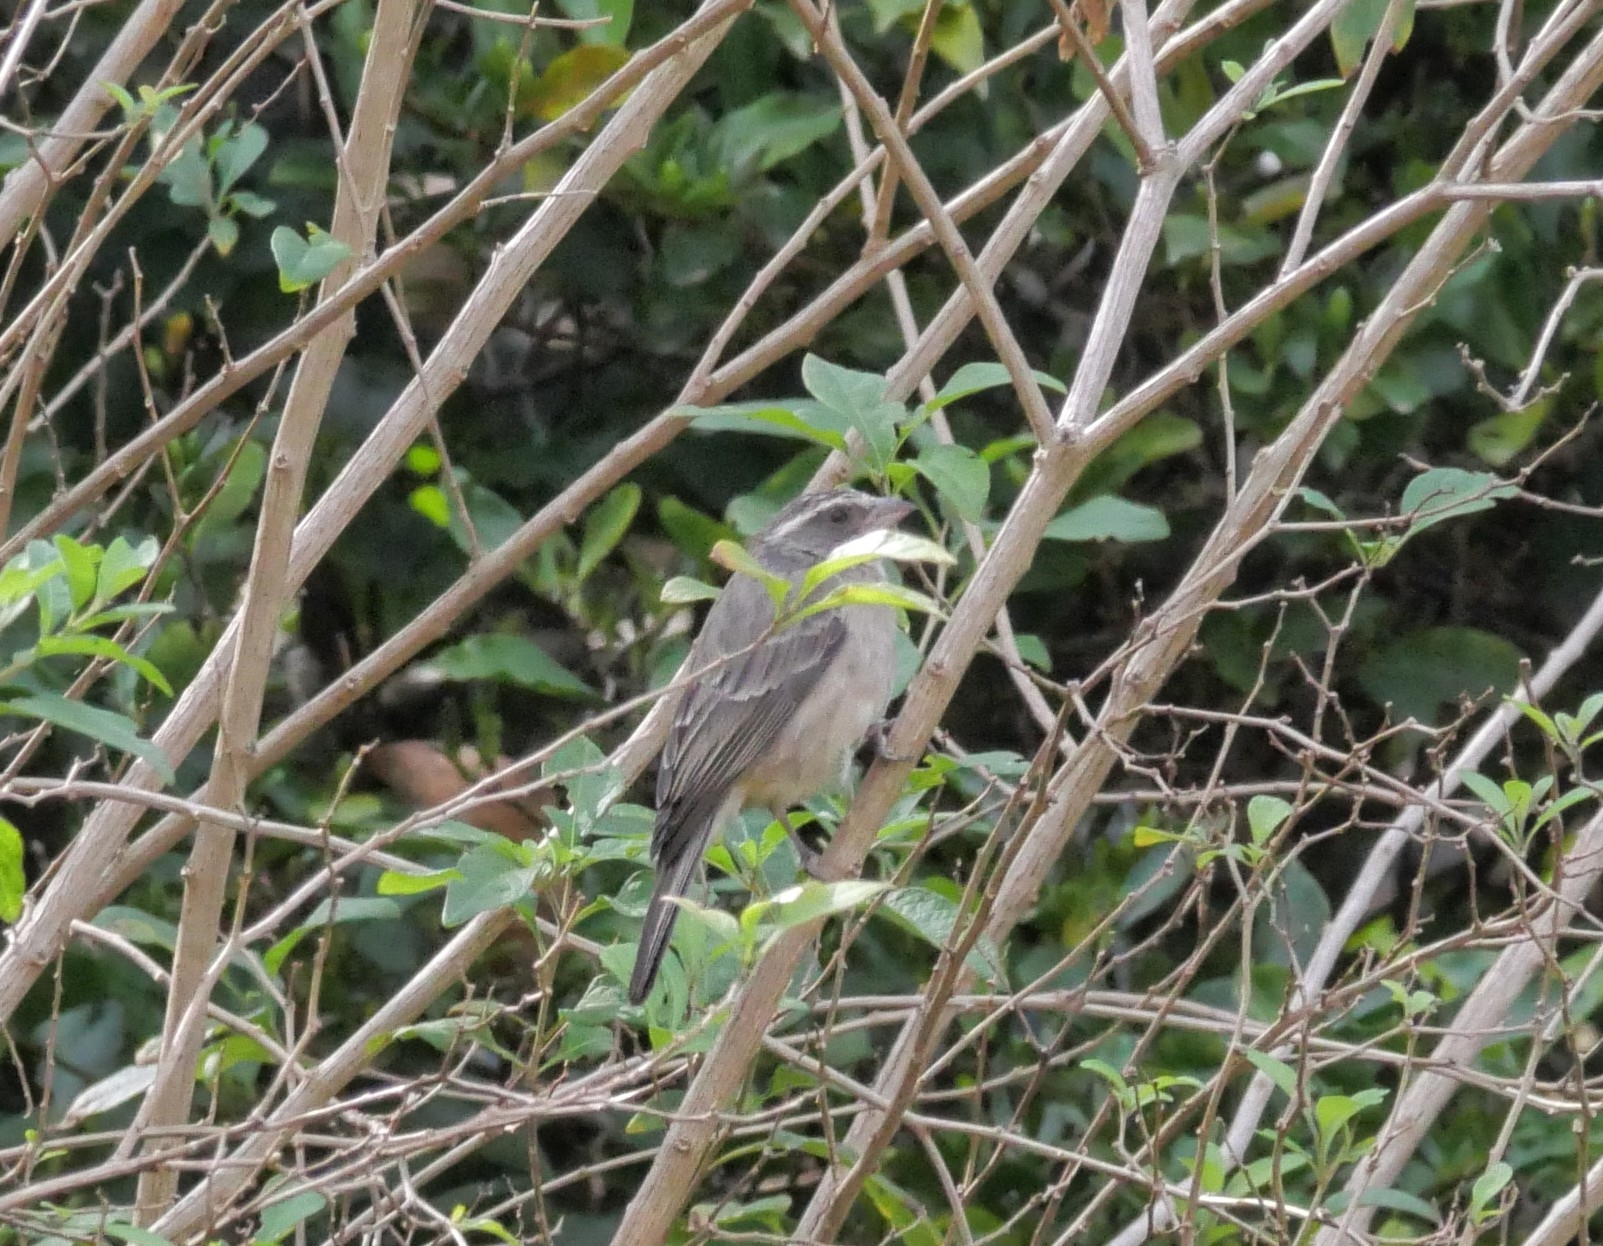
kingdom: Animalia
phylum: Chordata
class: Aves
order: Passeriformes
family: Fringillidae
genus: Crithagra
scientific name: Crithagra gularis
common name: Streaky-headed seedeater
